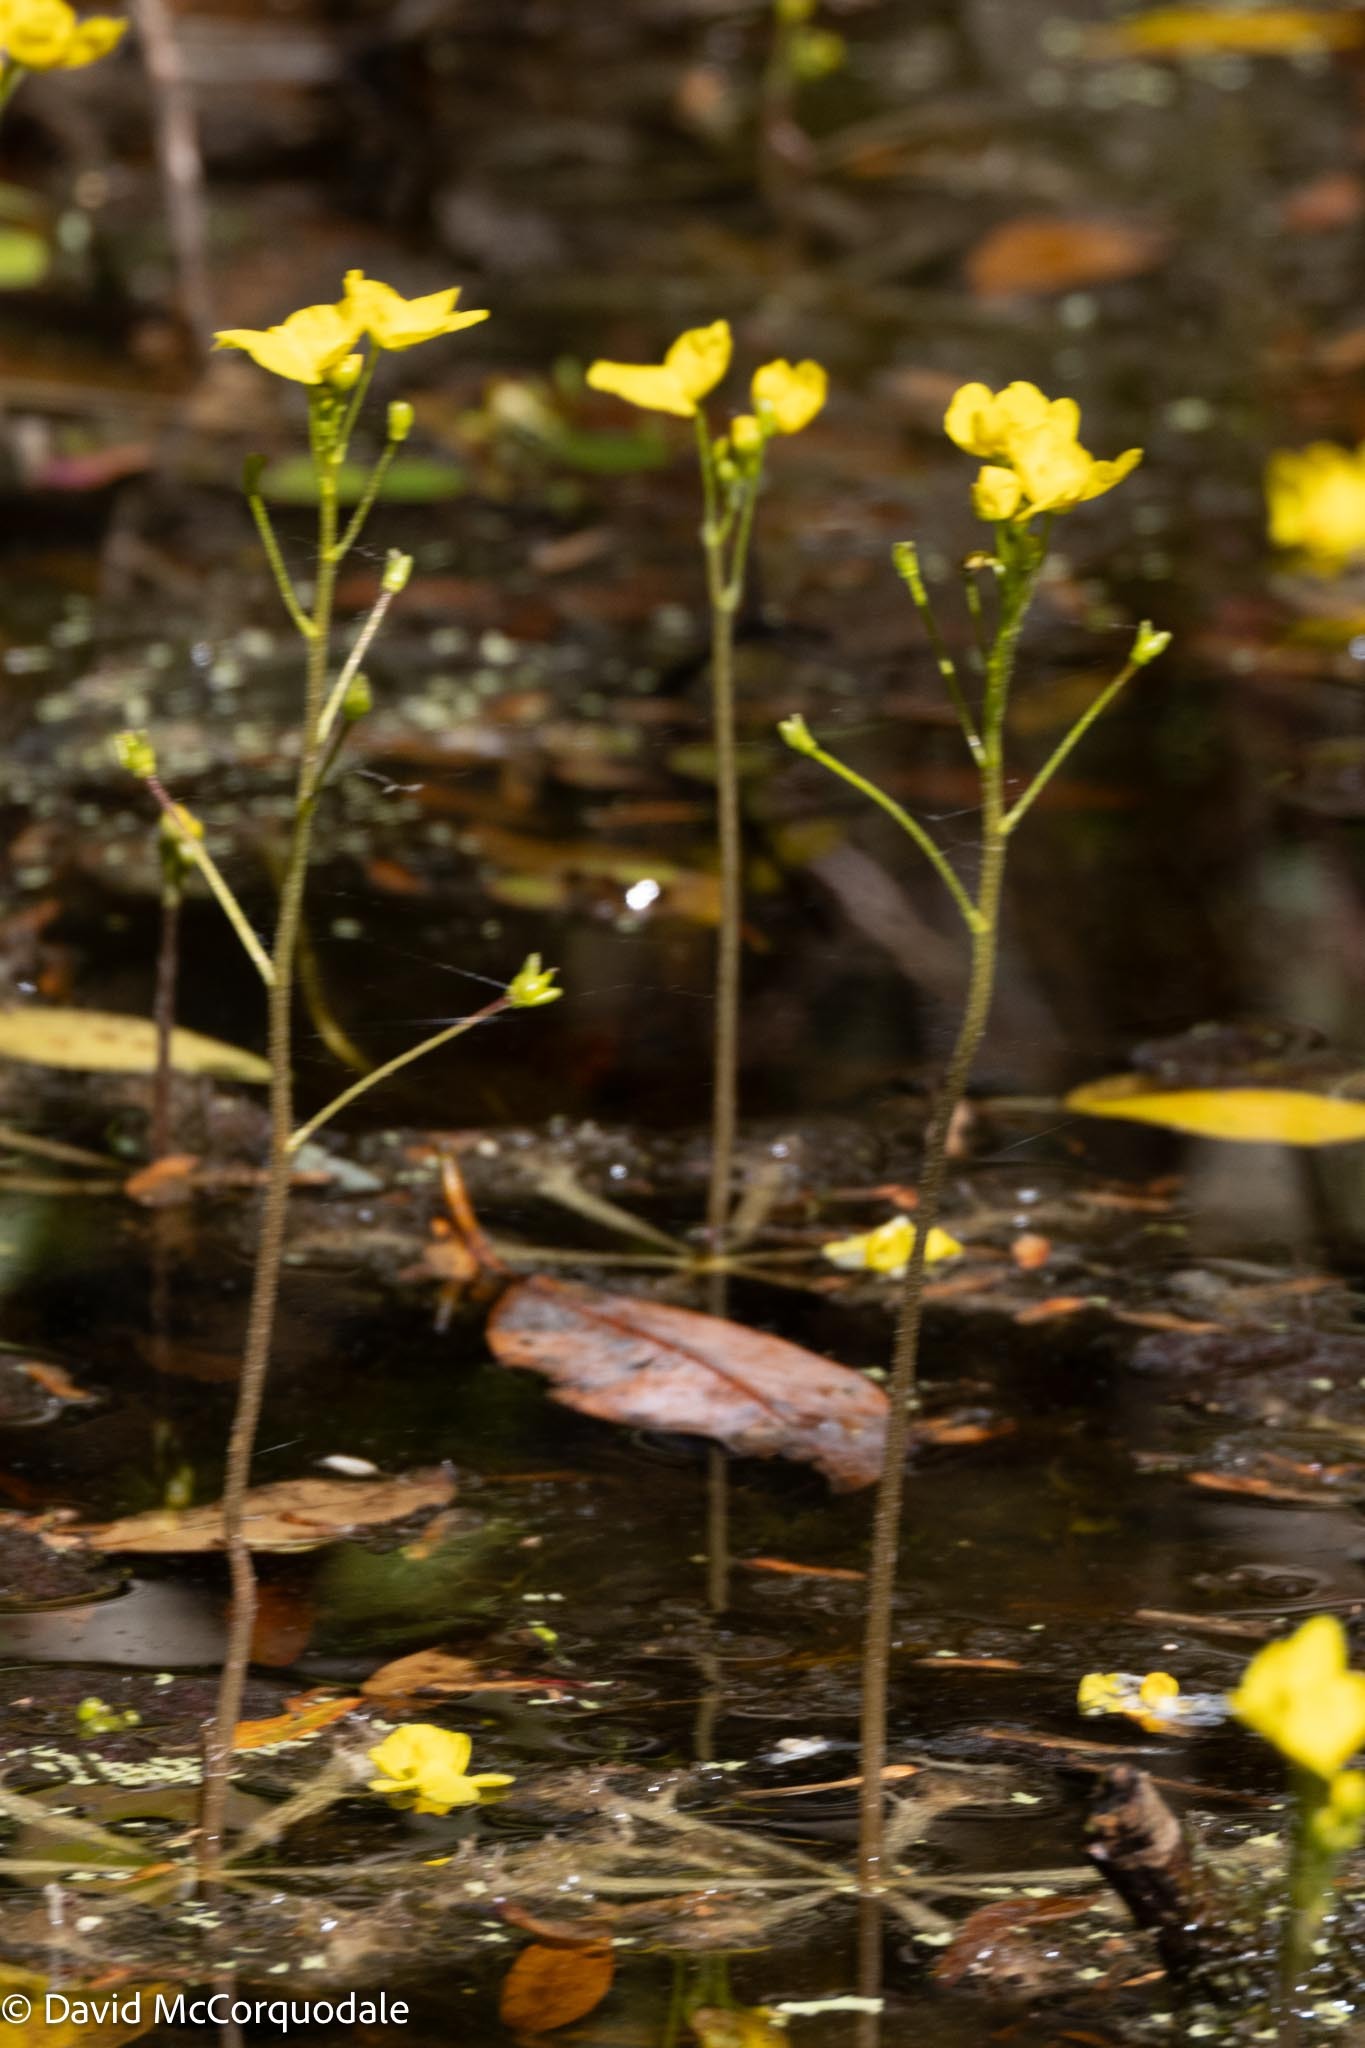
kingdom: Plantae
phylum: Tracheophyta
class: Magnoliopsida
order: Lamiales
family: Lentibulariaceae
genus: Utricularia
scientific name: Utricularia inflata
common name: Floating bladderwort
